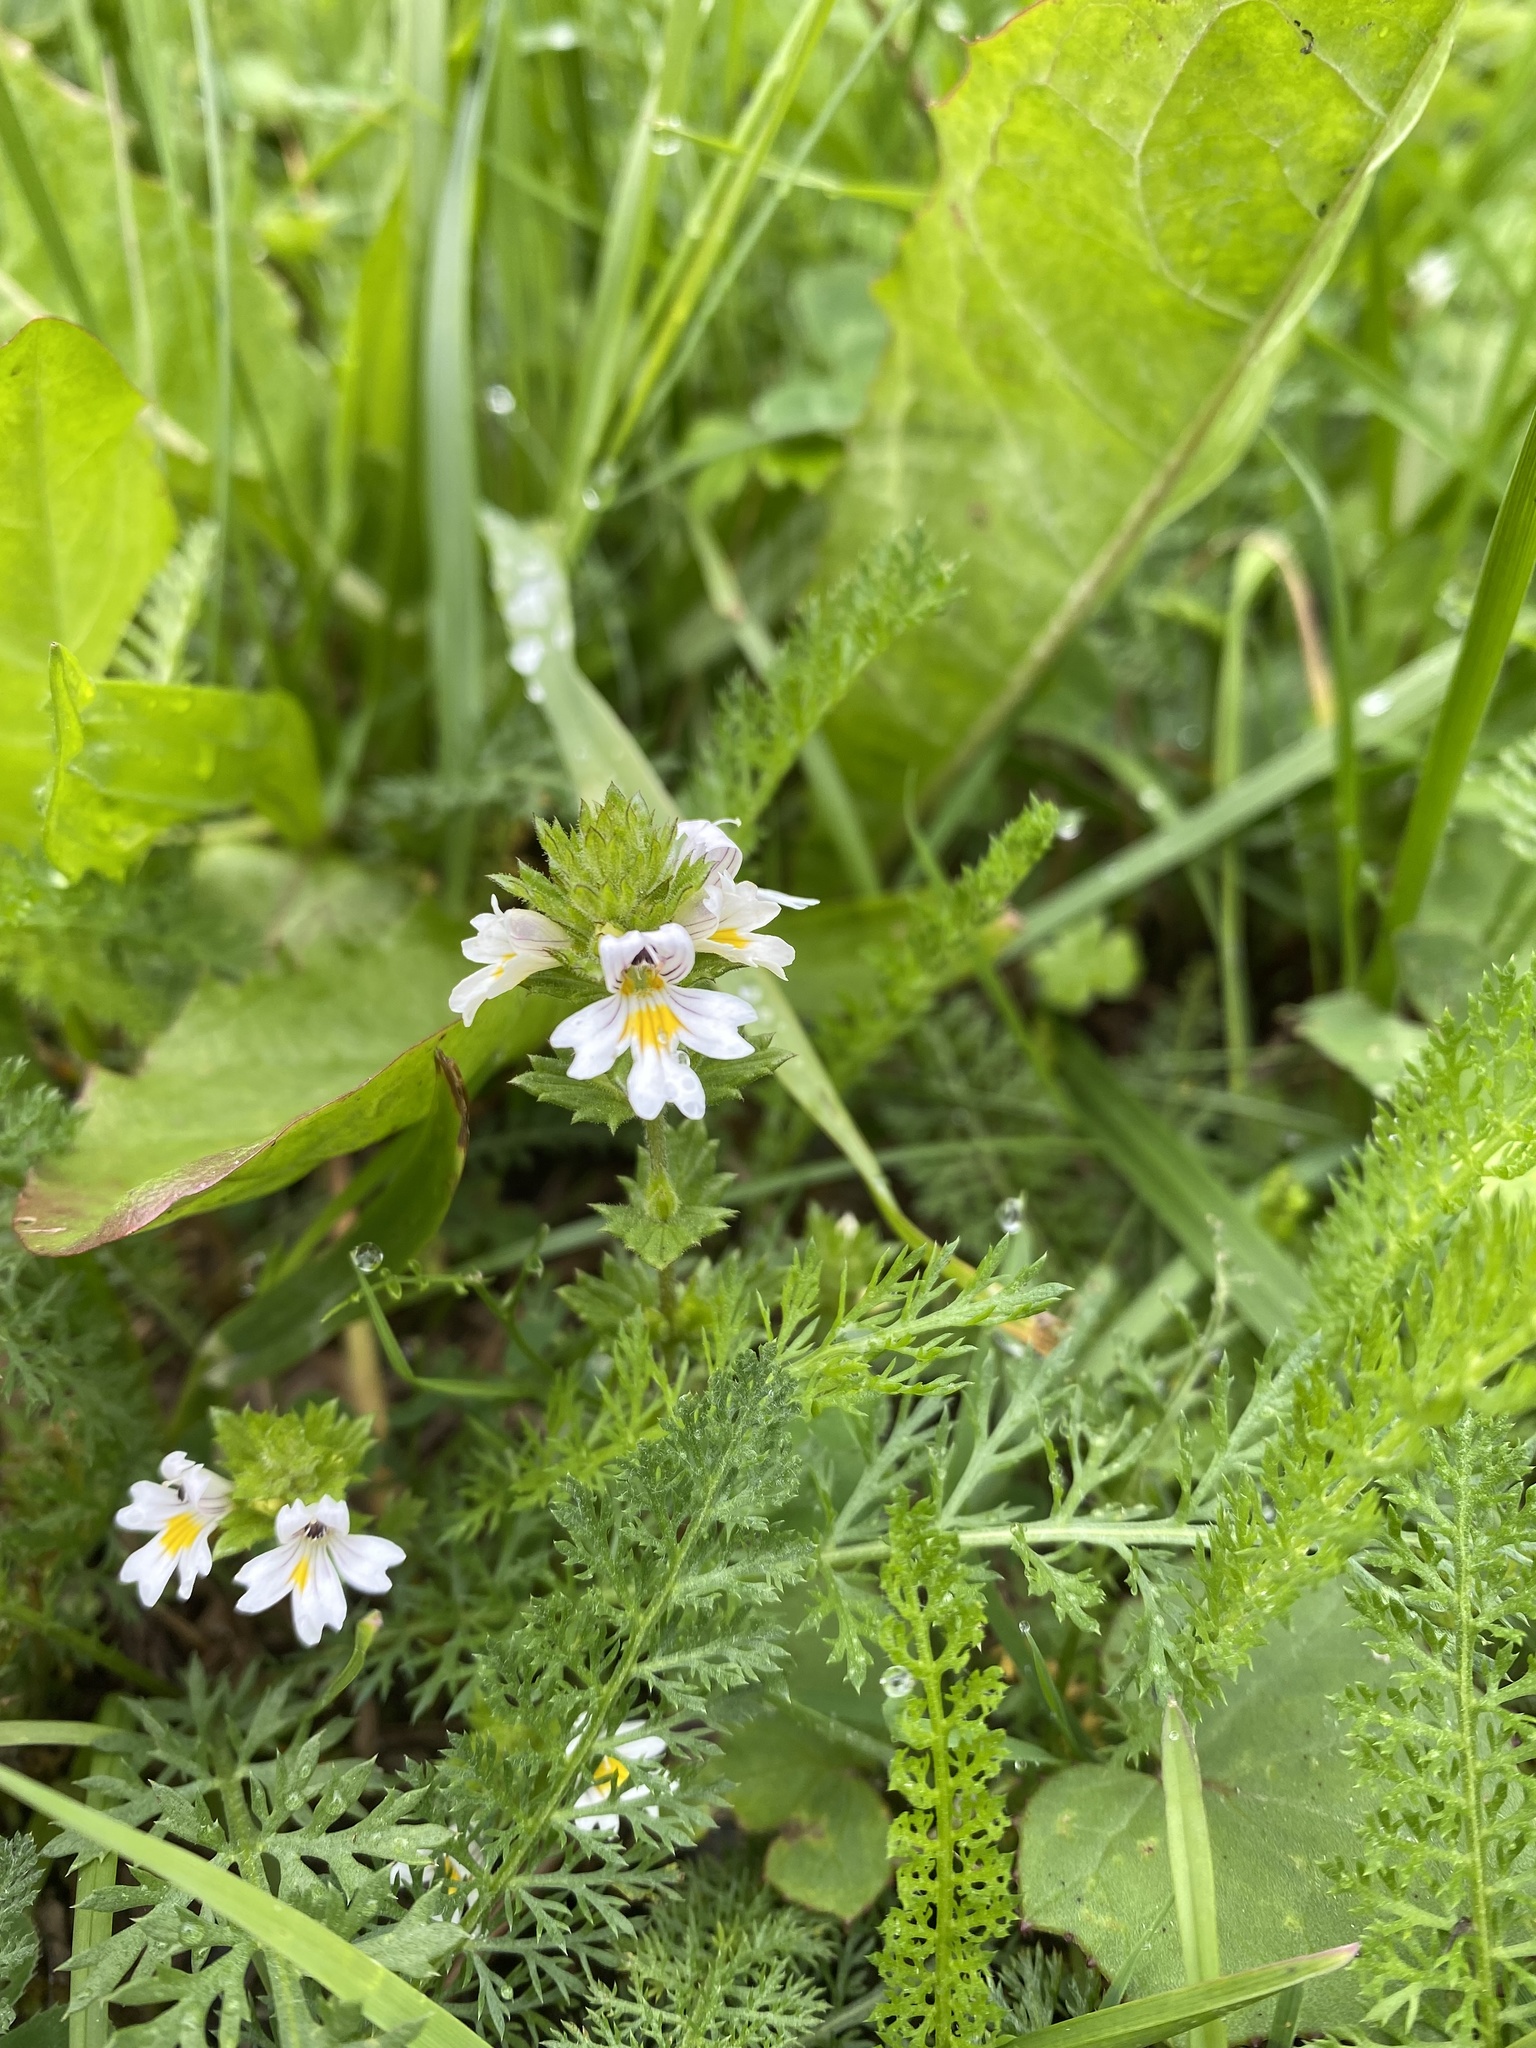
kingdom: Plantae
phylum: Tracheophyta
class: Magnoliopsida
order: Lamiales
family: Orobanchaceae
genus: Euphrasia
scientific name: Euphrasia officinalis
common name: Eyebright
